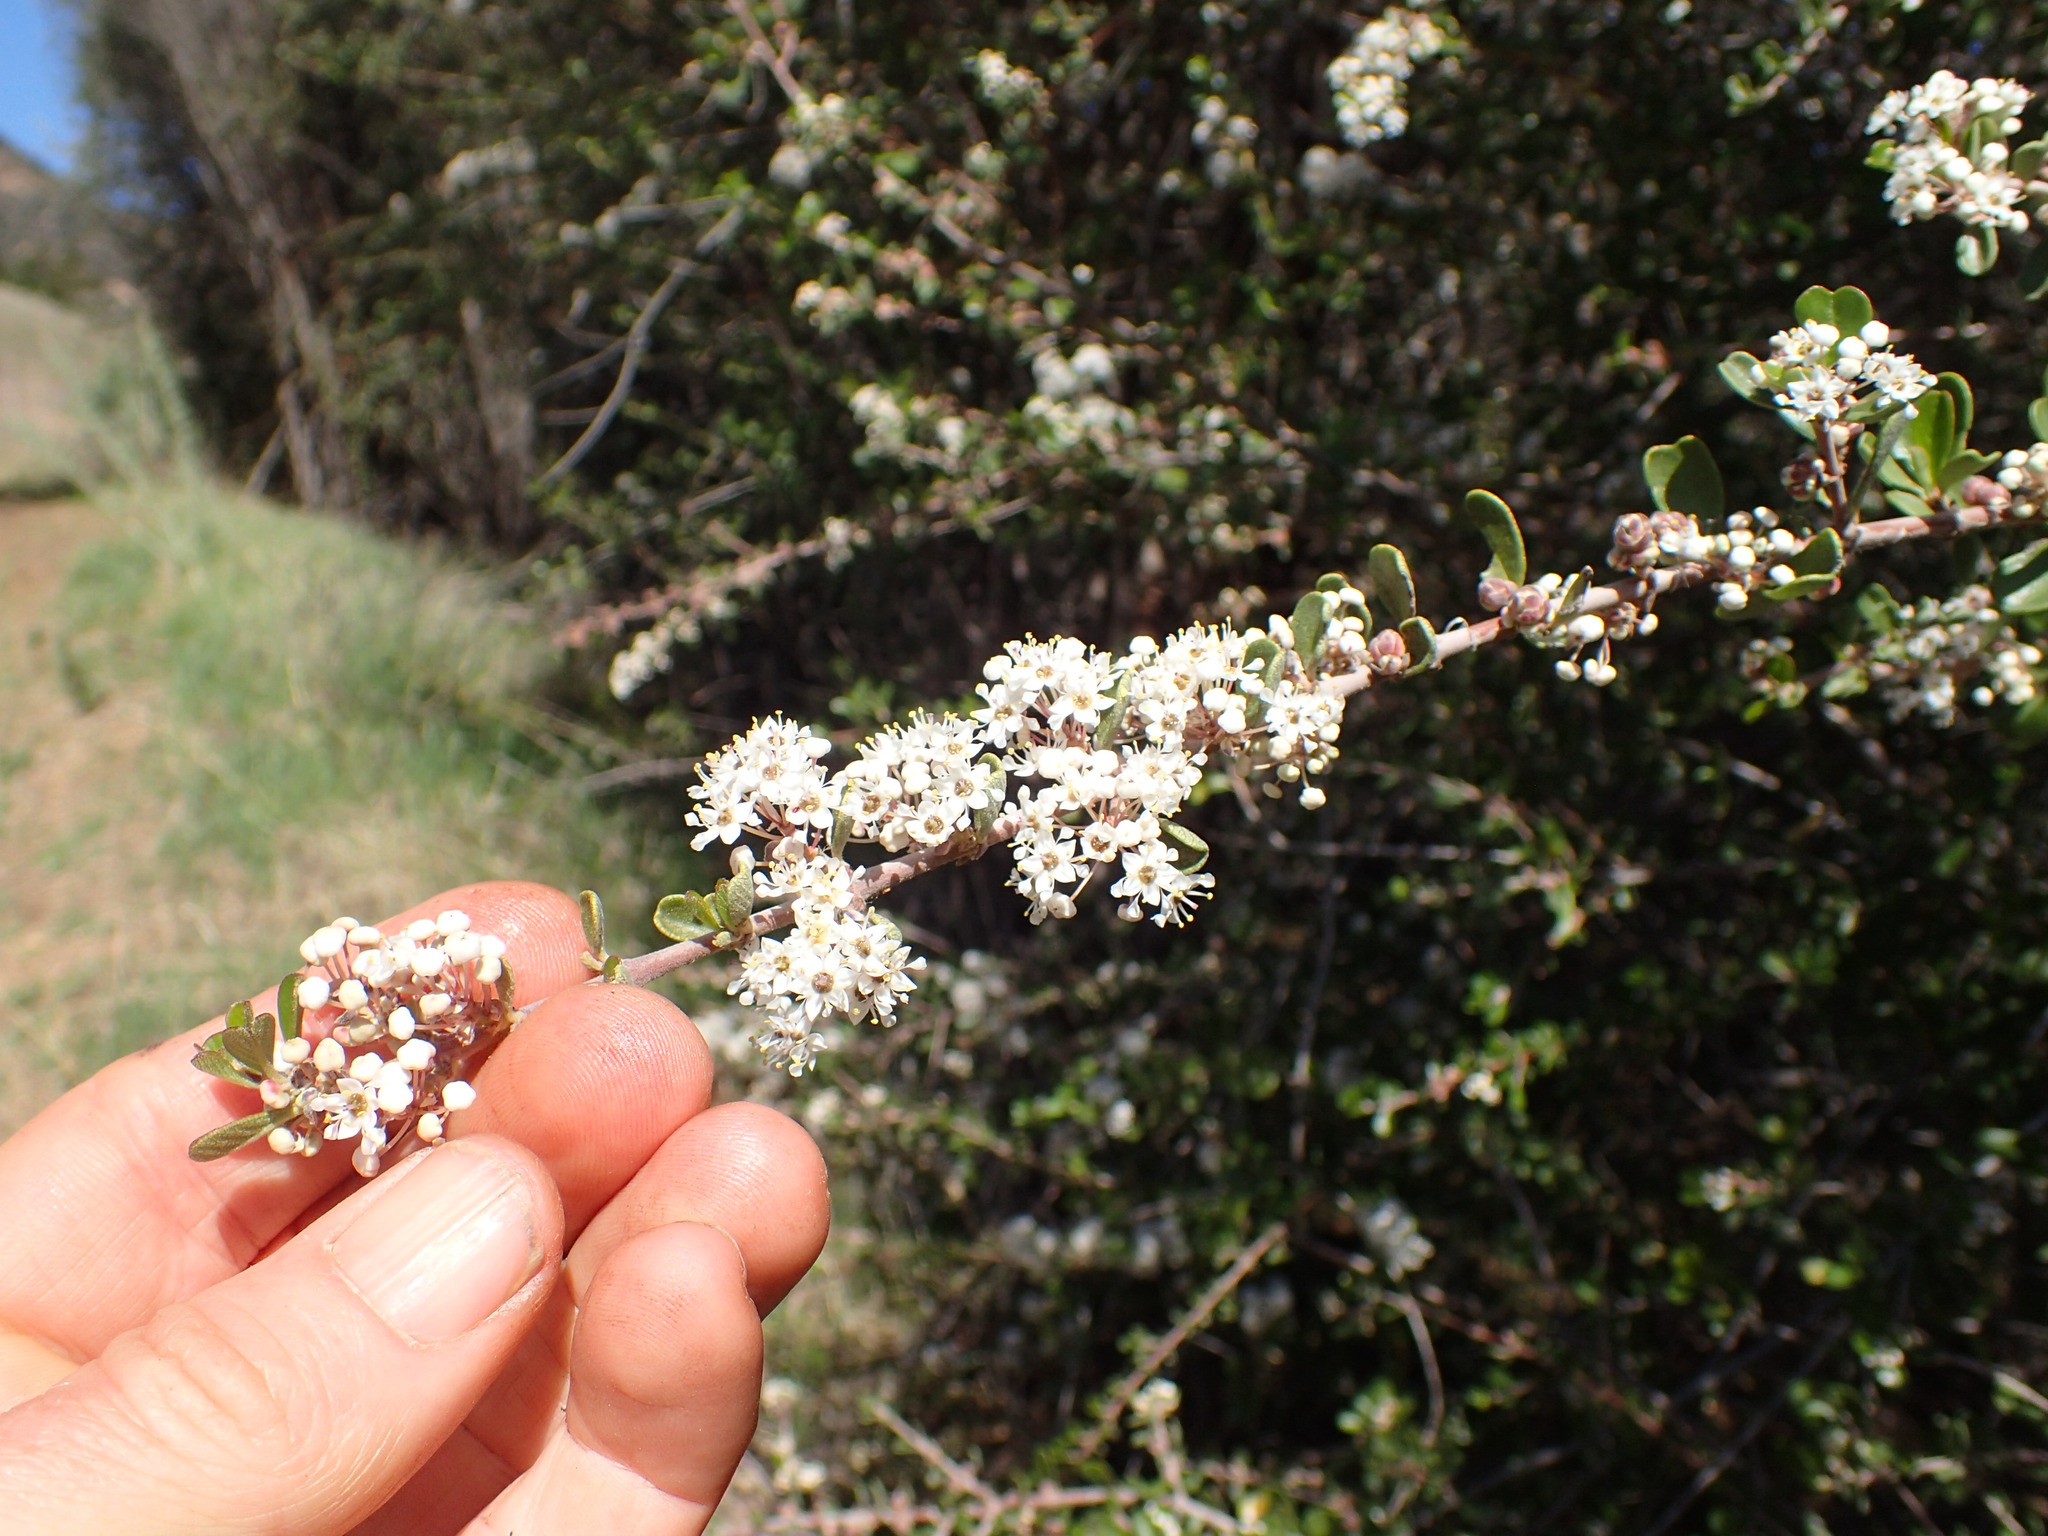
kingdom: Plantae
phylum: Tracheophyta
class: Magnoliopsida
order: Rosales
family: Rhamnaceae
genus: Ceanothus
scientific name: Ceanothus cuneatus
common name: Cuneate ceanothus
